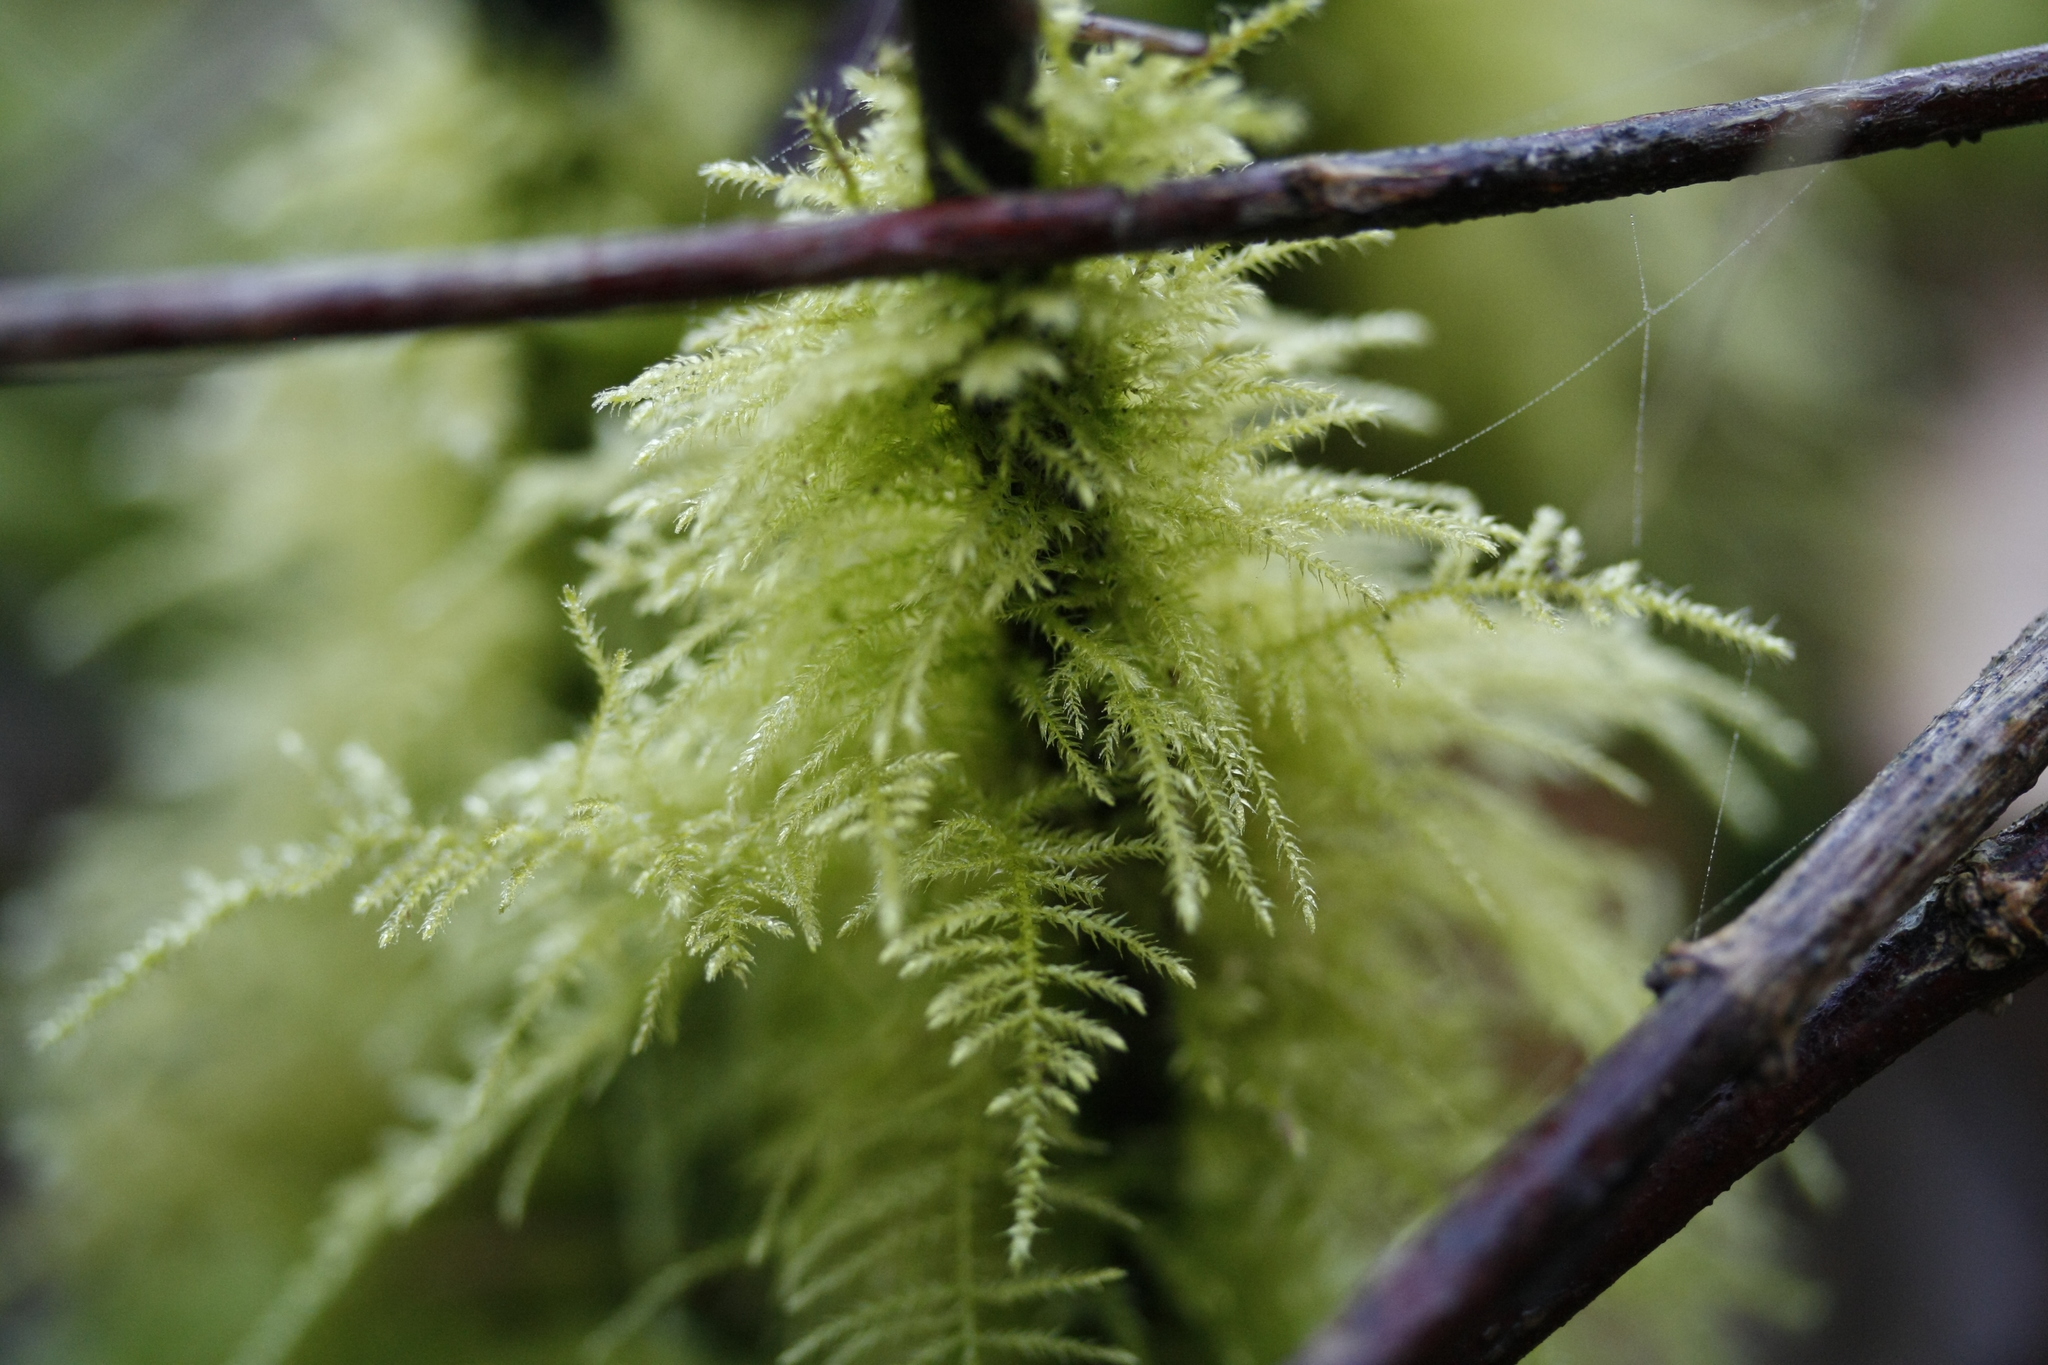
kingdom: Plantae
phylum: Bryophyta
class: Bryopsida
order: Hypnales
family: Brachytheciaceae
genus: Kindbergia
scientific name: Kindbergia praelonga
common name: Slender beaked moss
